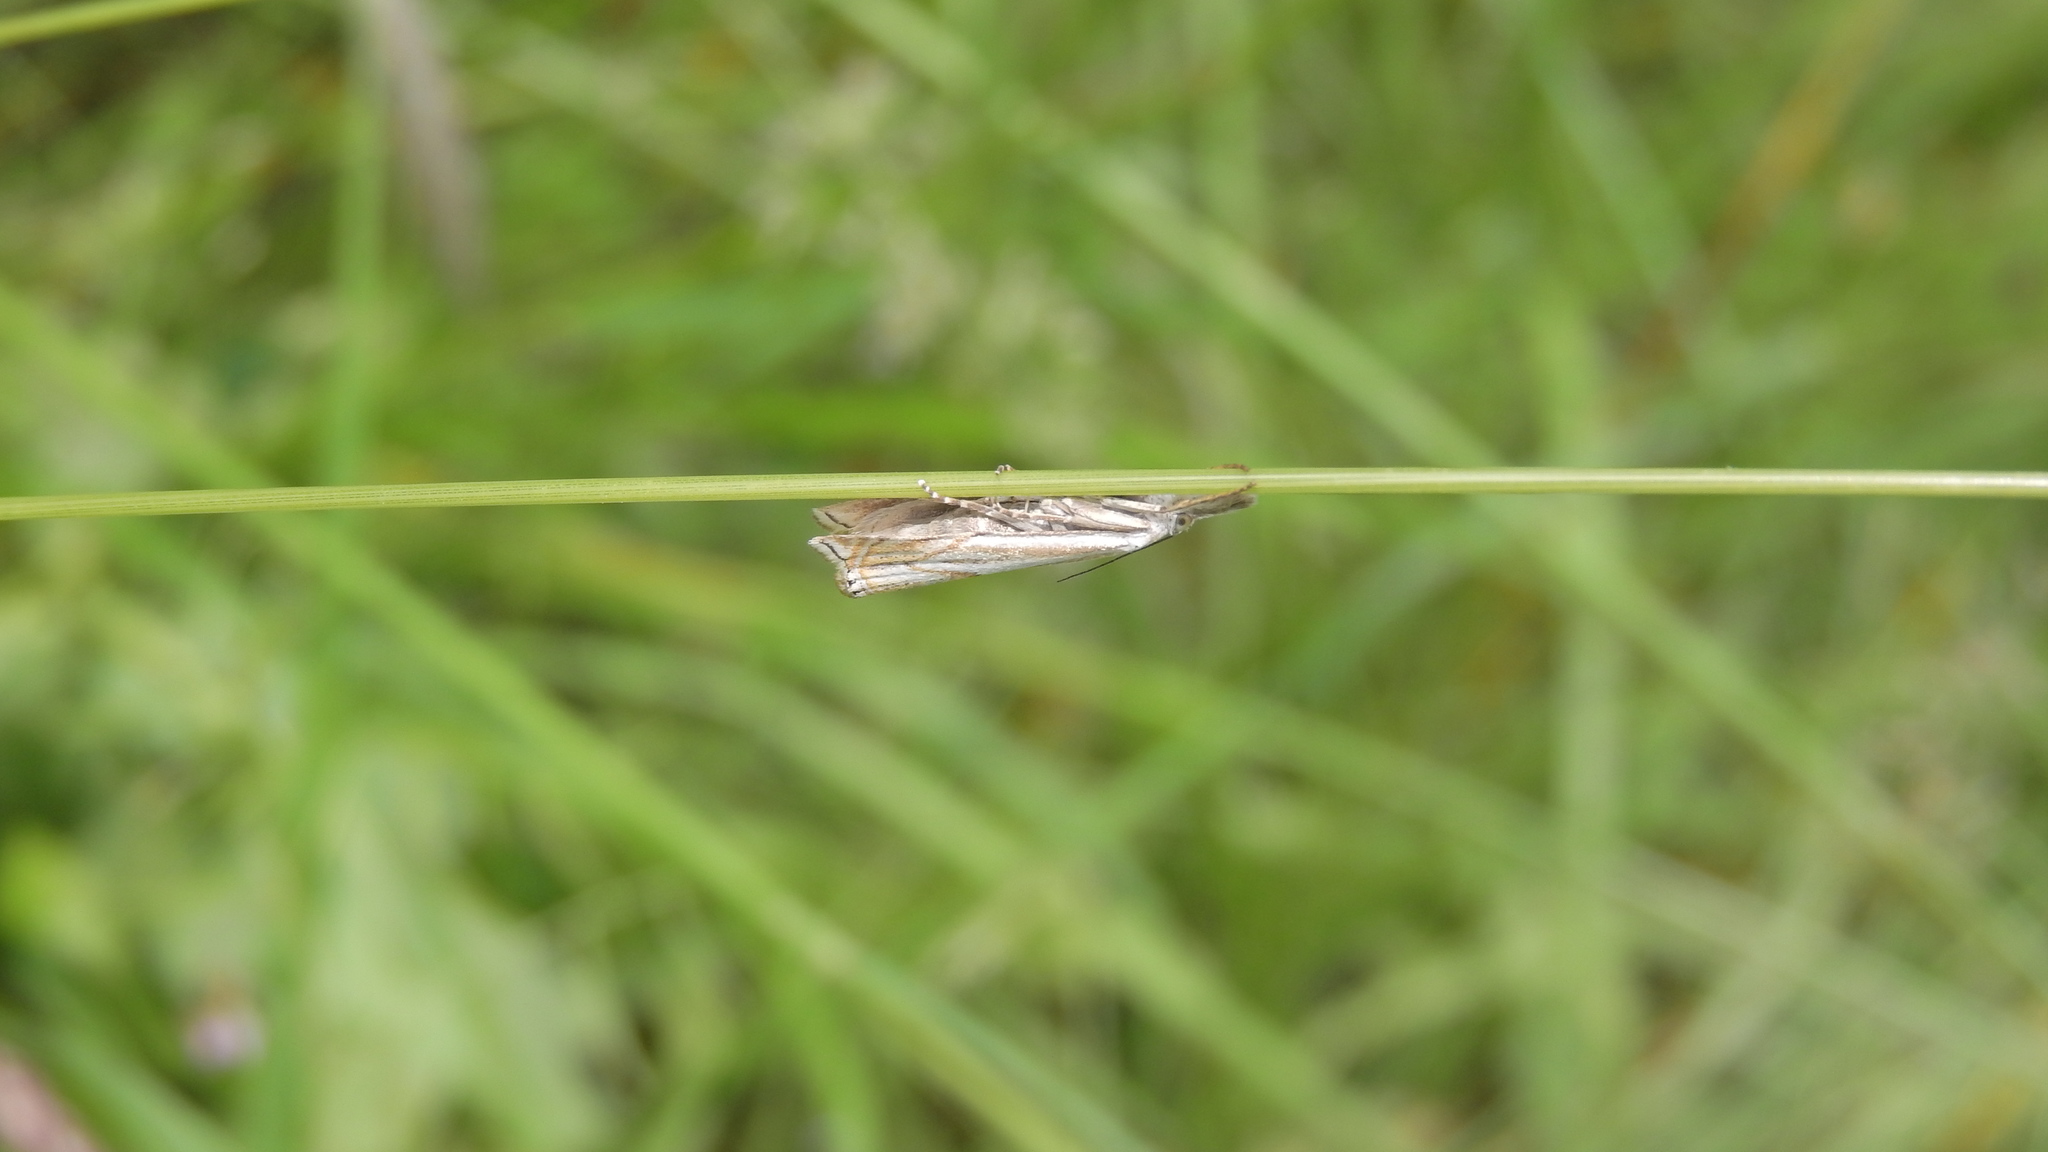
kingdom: Animalia
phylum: Arthropoda
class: Insecta
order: Lepidoptera
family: Crambidae
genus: Crambus
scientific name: Crambus nemorella
